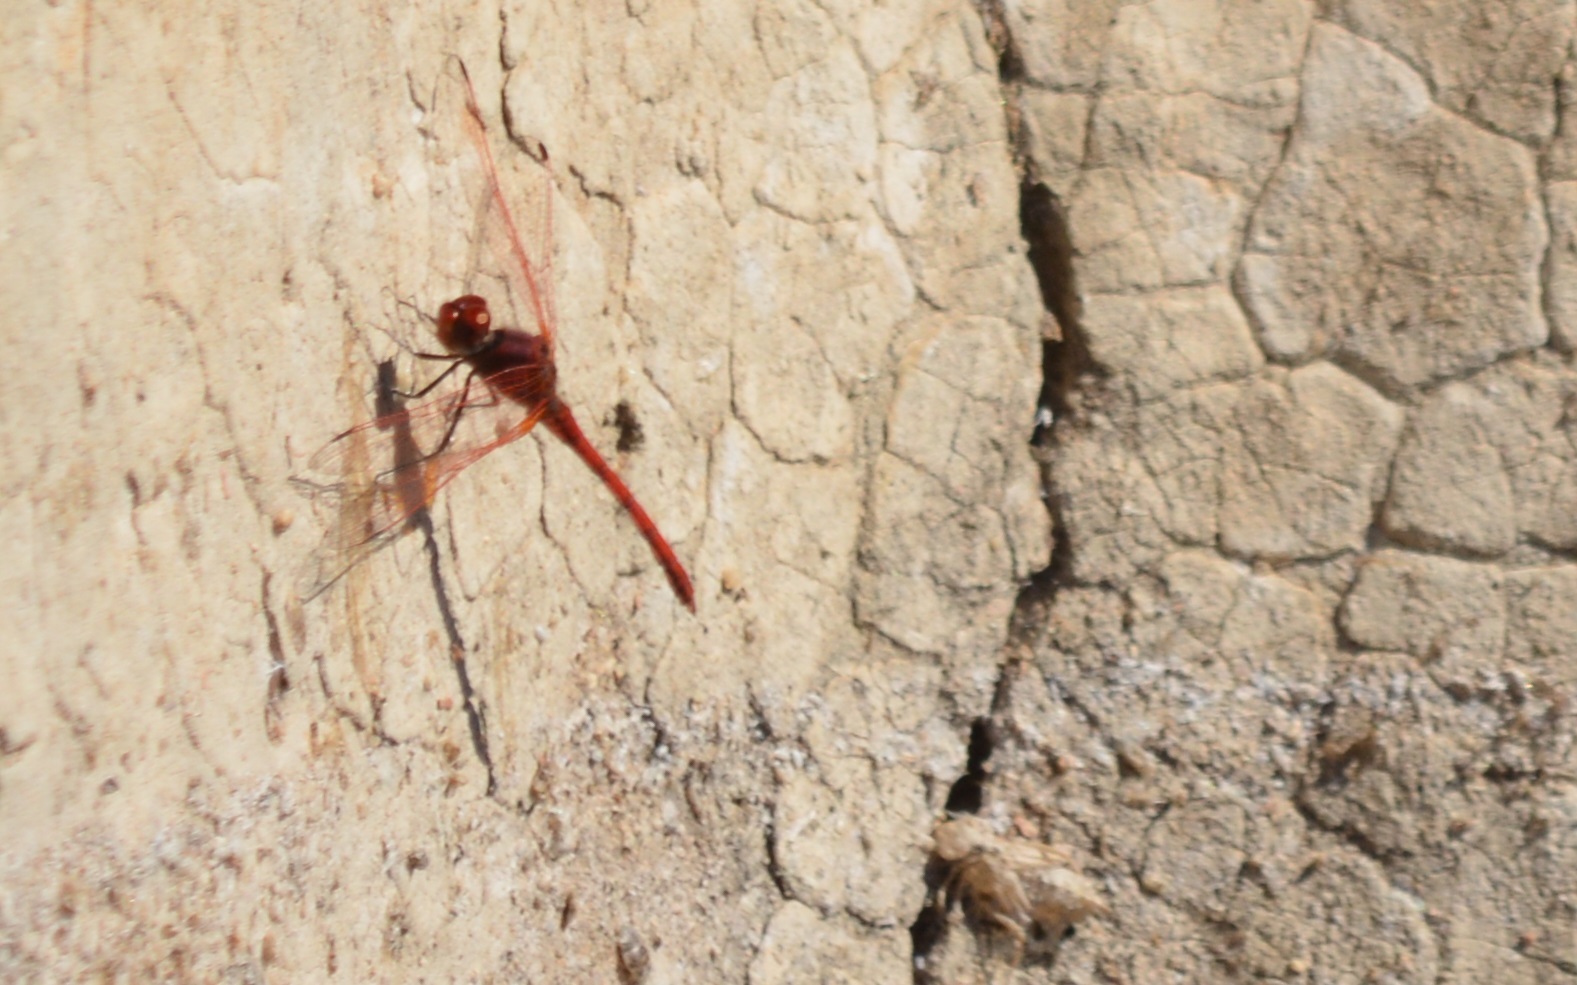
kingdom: Animalia
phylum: Arthropoda
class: Insecta
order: Odonata
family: Libellulidae
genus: Trithemis
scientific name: Trithemis arteriosa
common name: Red-veined dropwing
